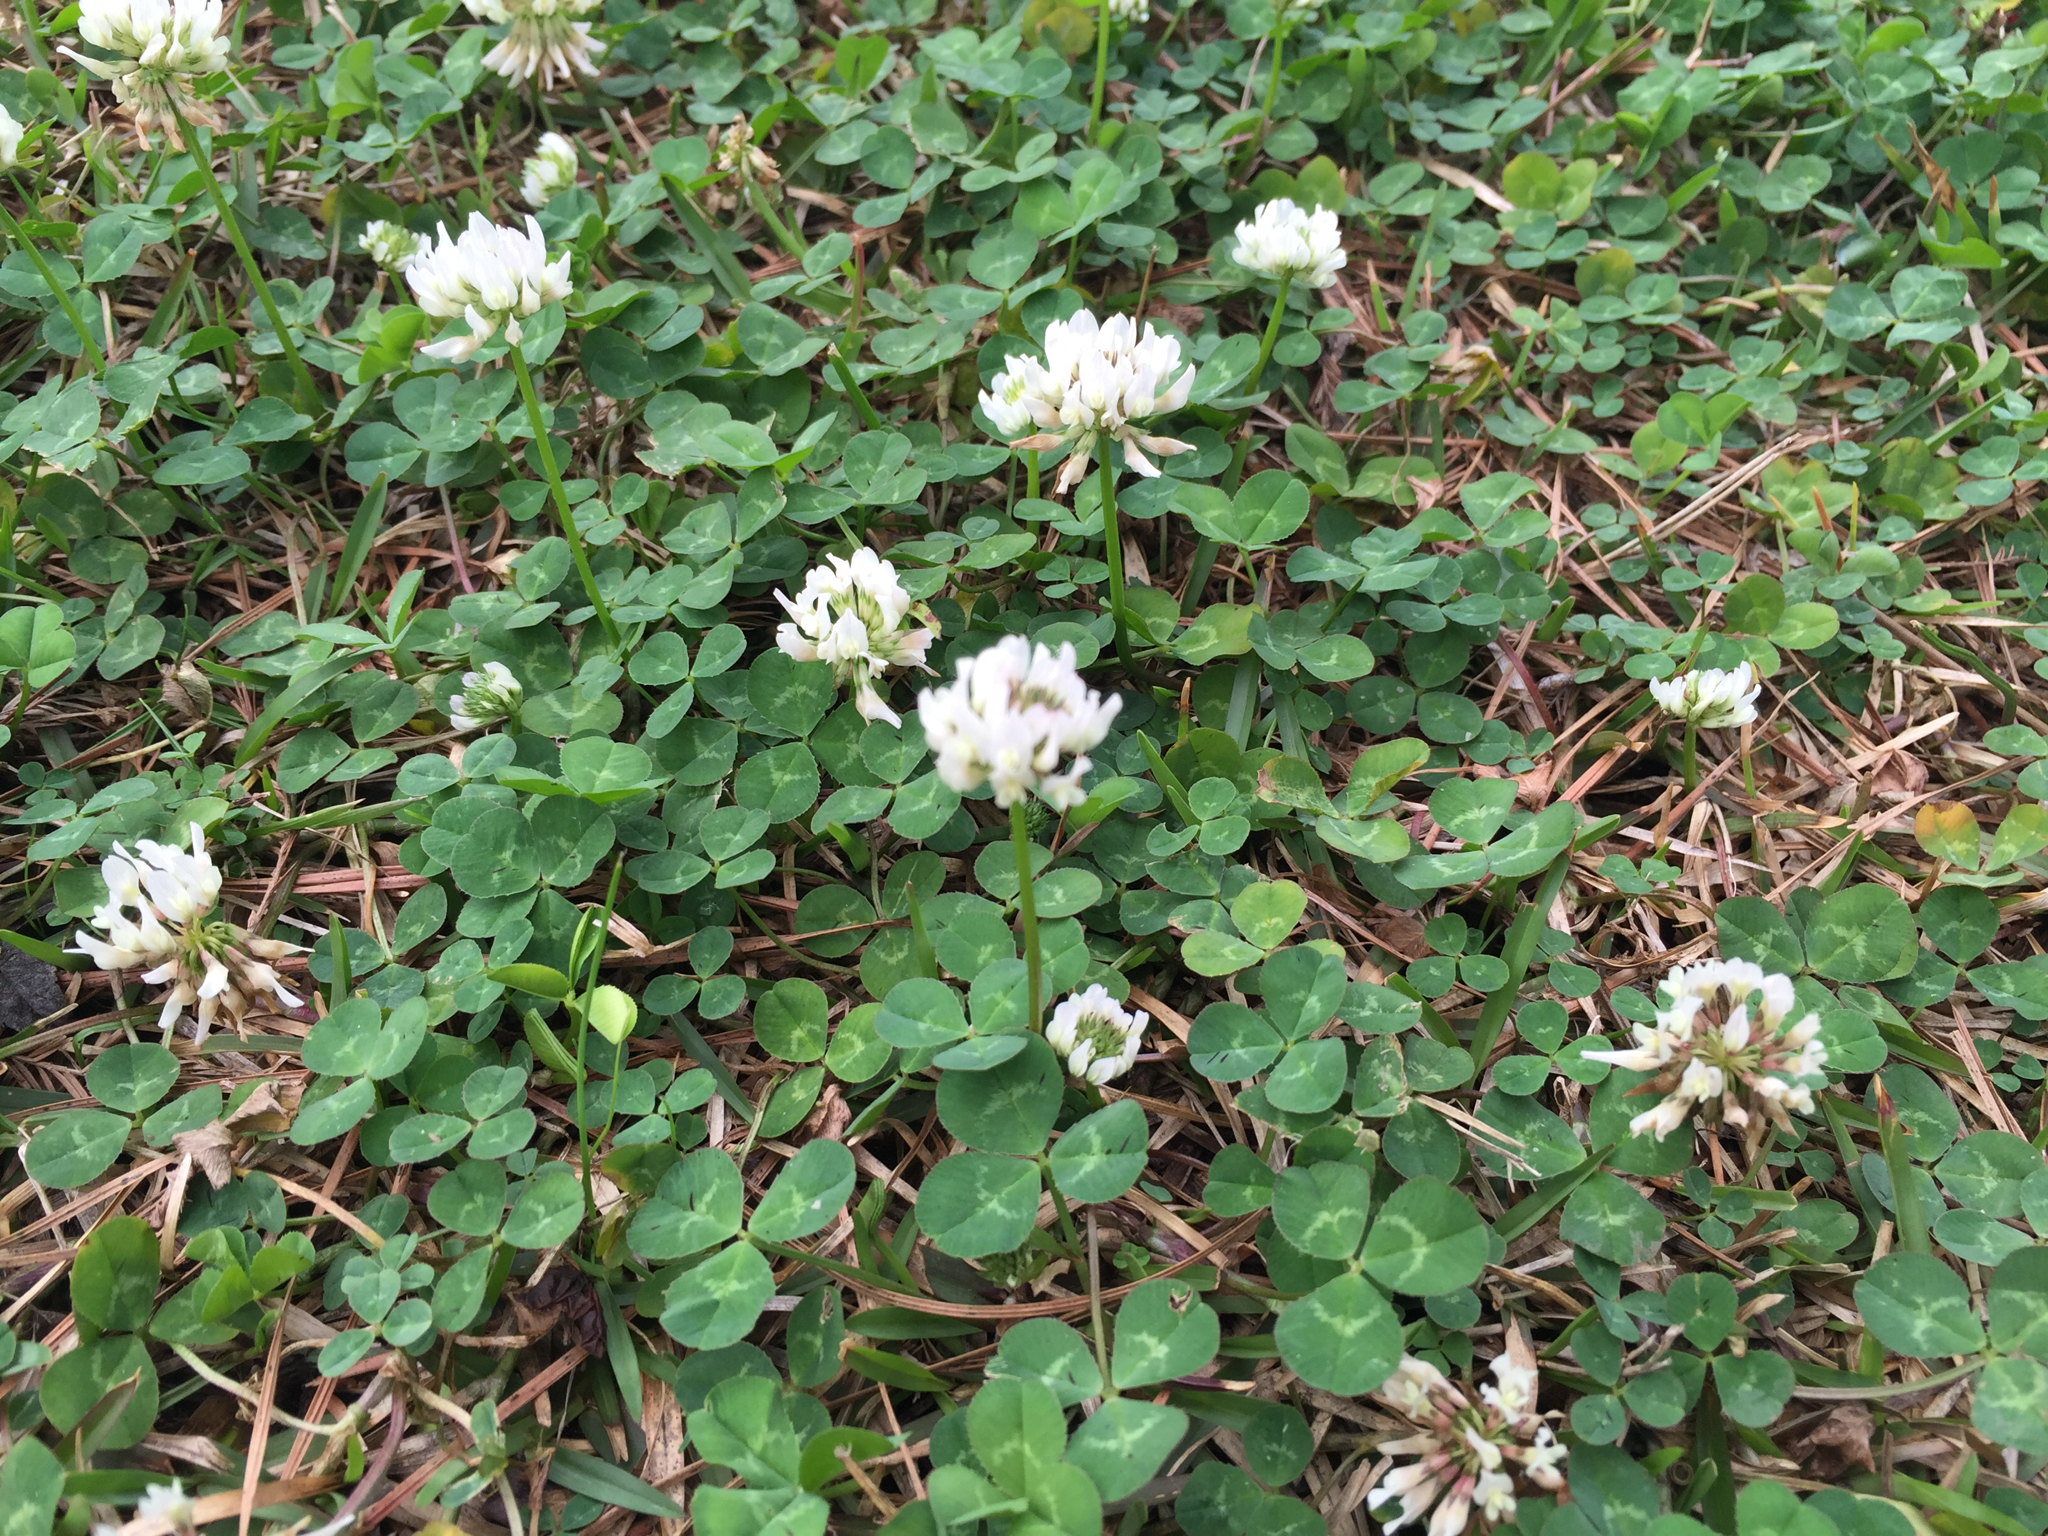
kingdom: Plantae
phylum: Tracheophyta
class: Magnoliopsida
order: Fabales
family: Fabaceae
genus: Trifolium
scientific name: Trifolium repens
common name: White clover
